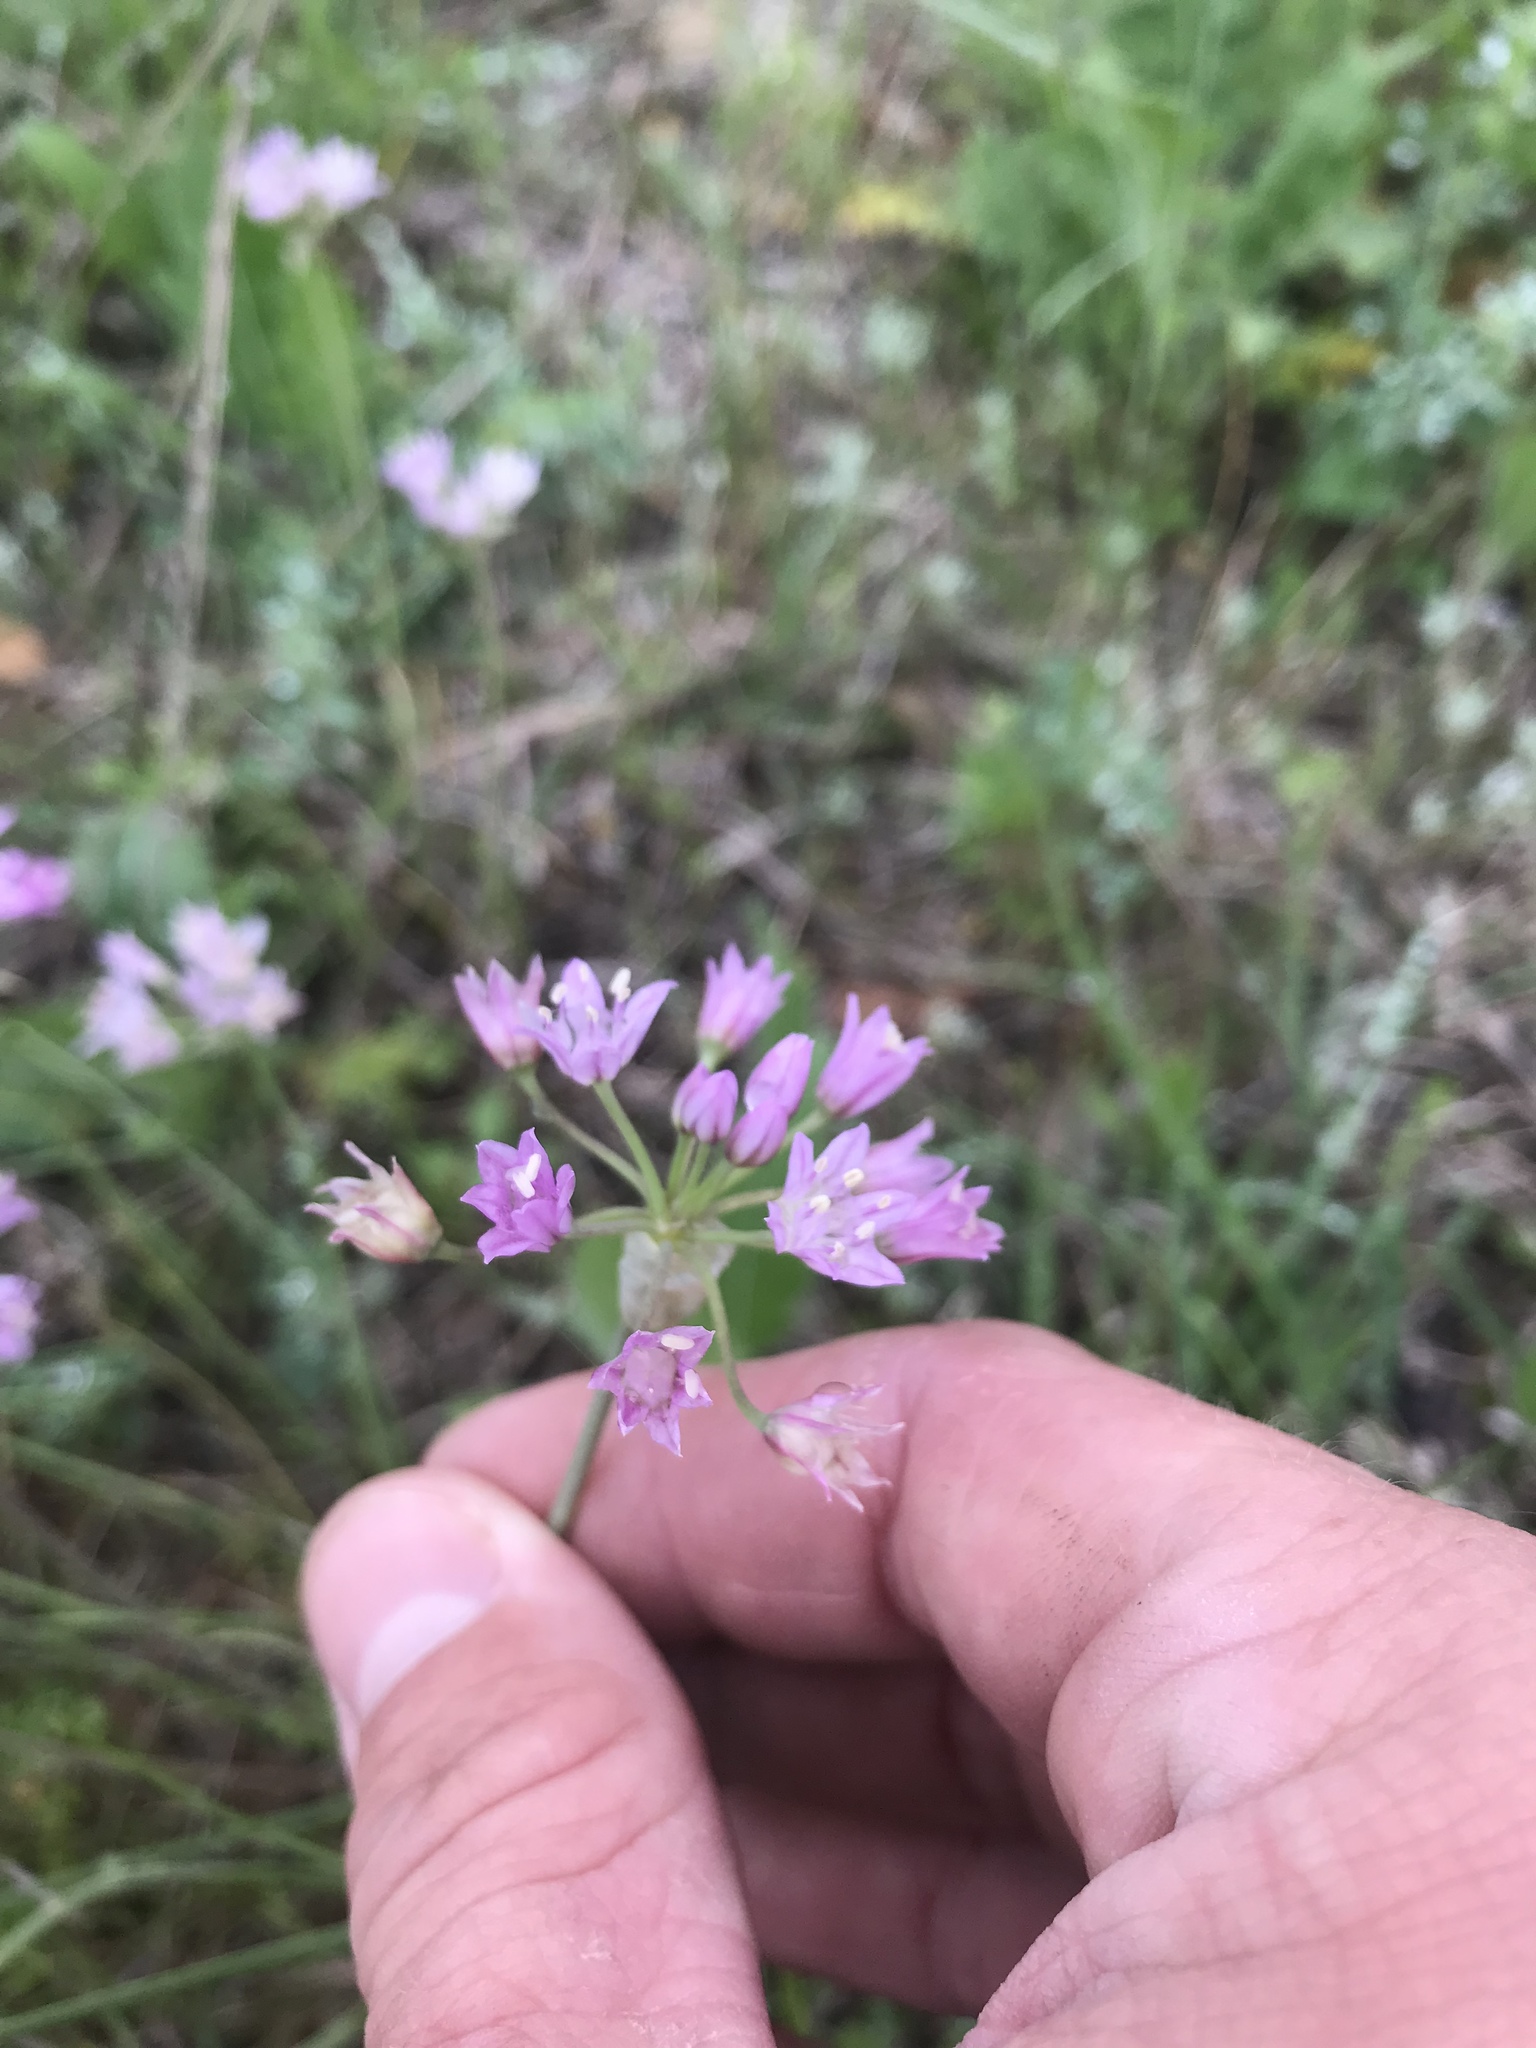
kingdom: Plantae
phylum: Tracheophyta
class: Liliopsida
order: Asparagales
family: Amaryllidaceae
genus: Allium
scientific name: Allium drummondii
